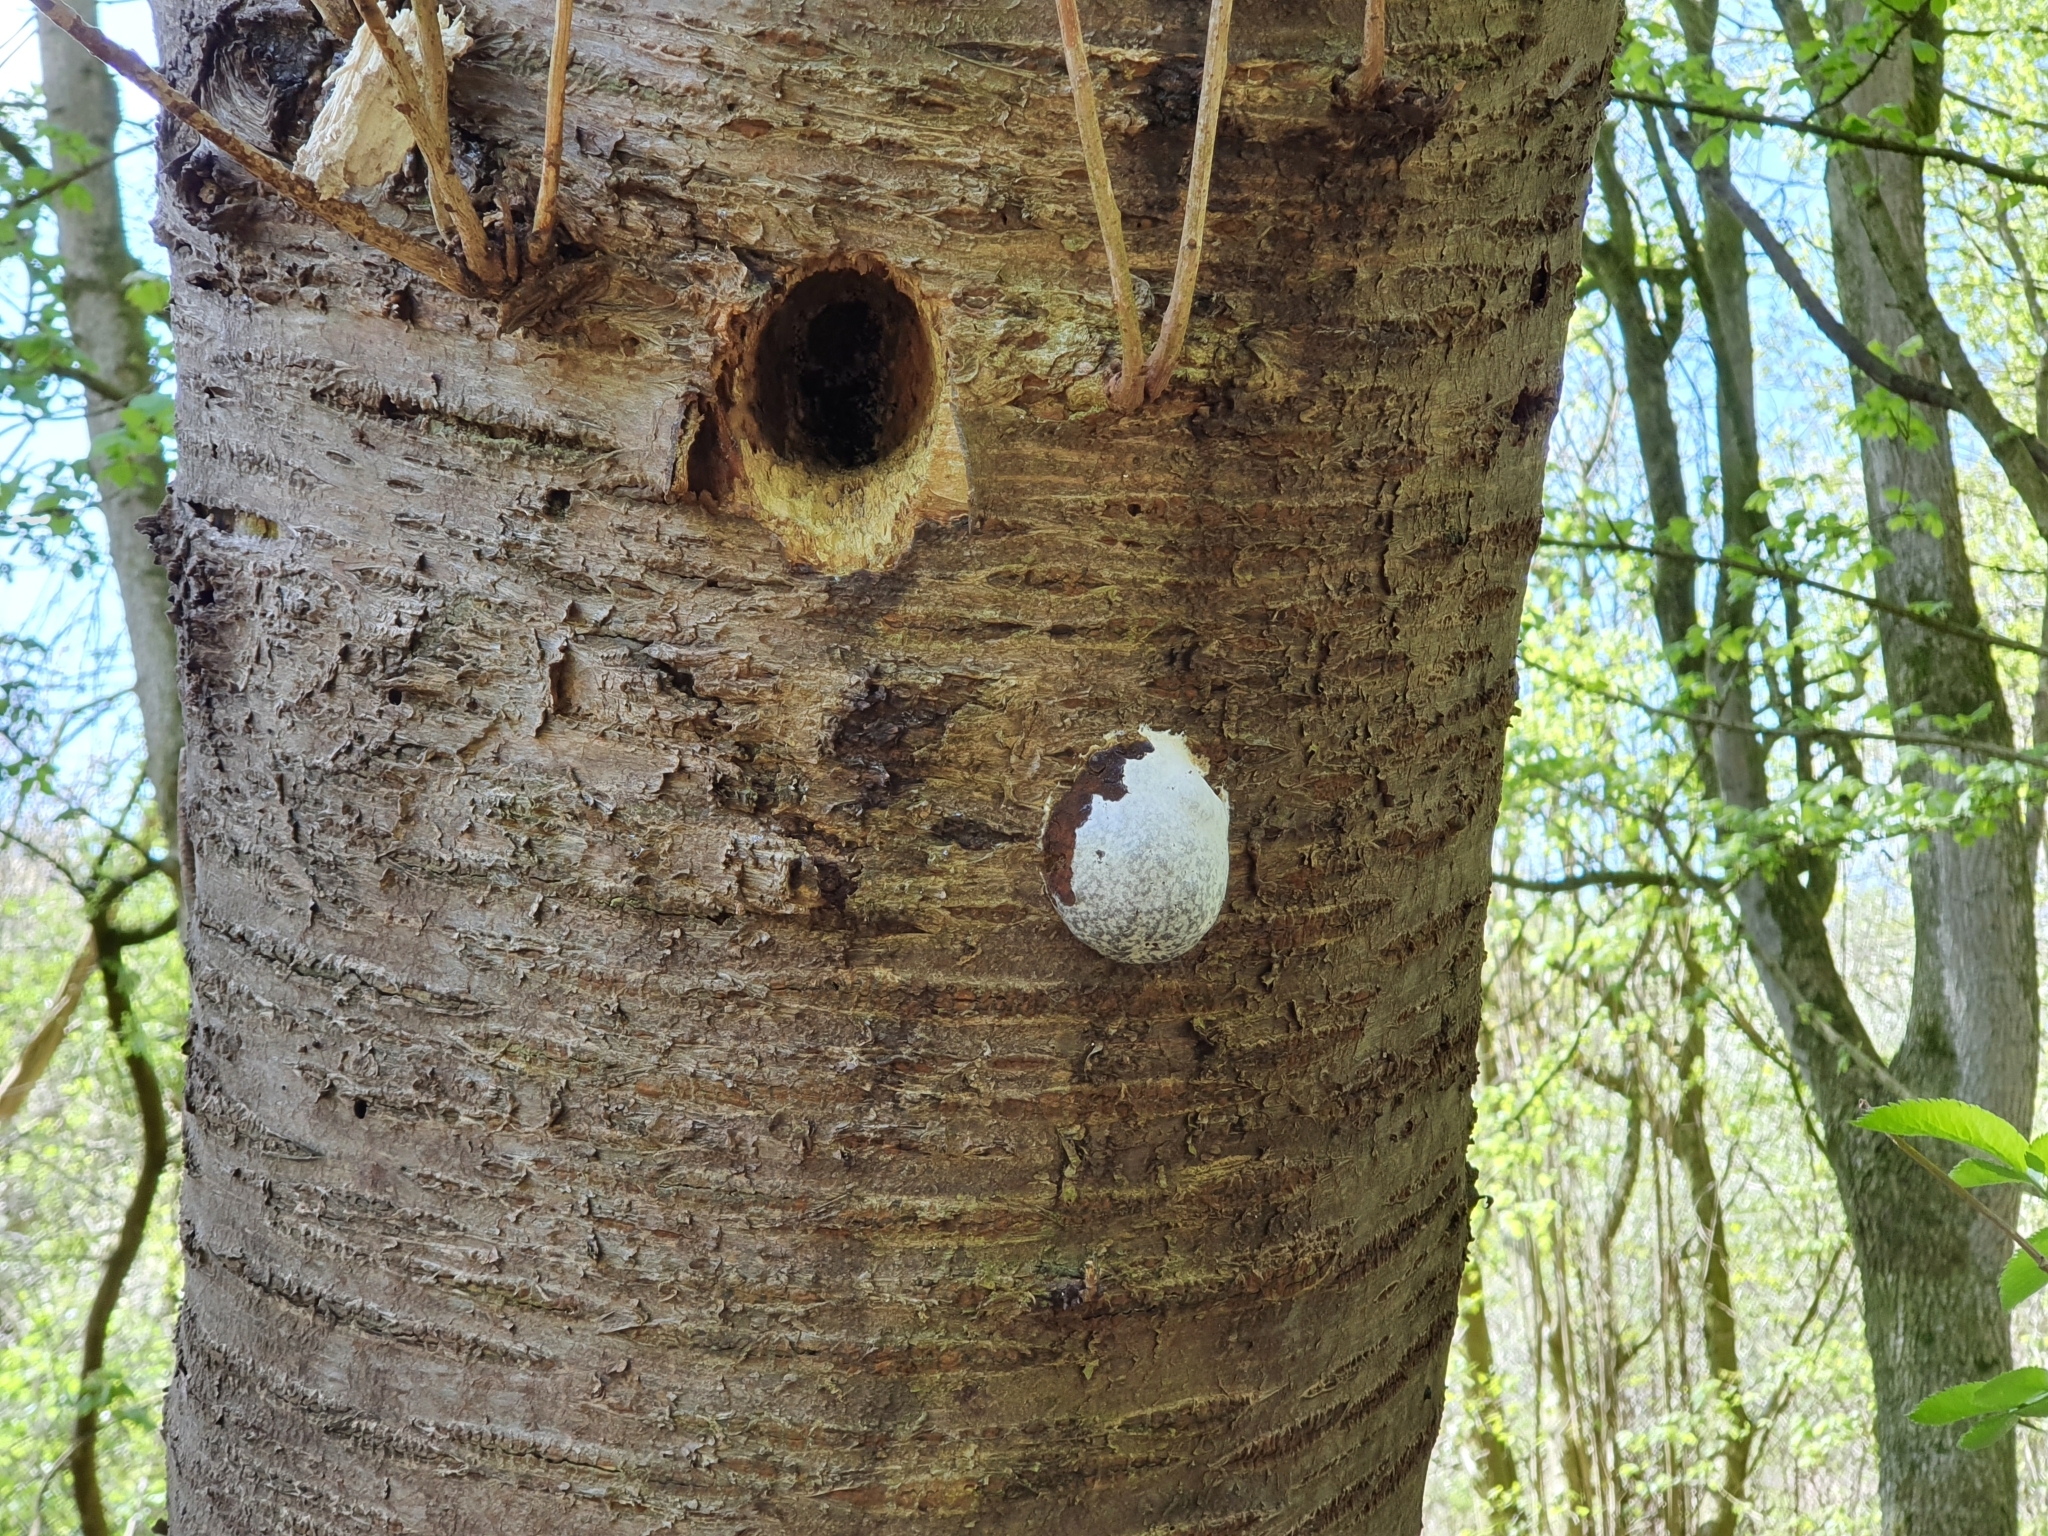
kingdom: Protozoa
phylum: Mycetozoa
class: Myxomycetes
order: Cribrariales
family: Tubiferaceae
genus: Reticularia
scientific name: Reticularia lycoperdon
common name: False puffball
